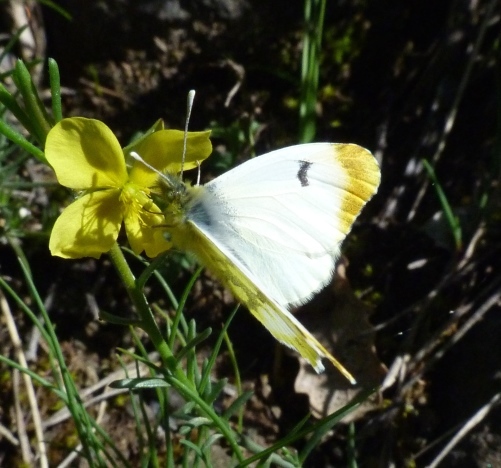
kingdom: Animalia
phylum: Arthropoda
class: Insecta
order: Lepidoptera
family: Pieridae
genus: Anthocharis
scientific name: Anthocharis euphenoides
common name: Provence orange-tip
